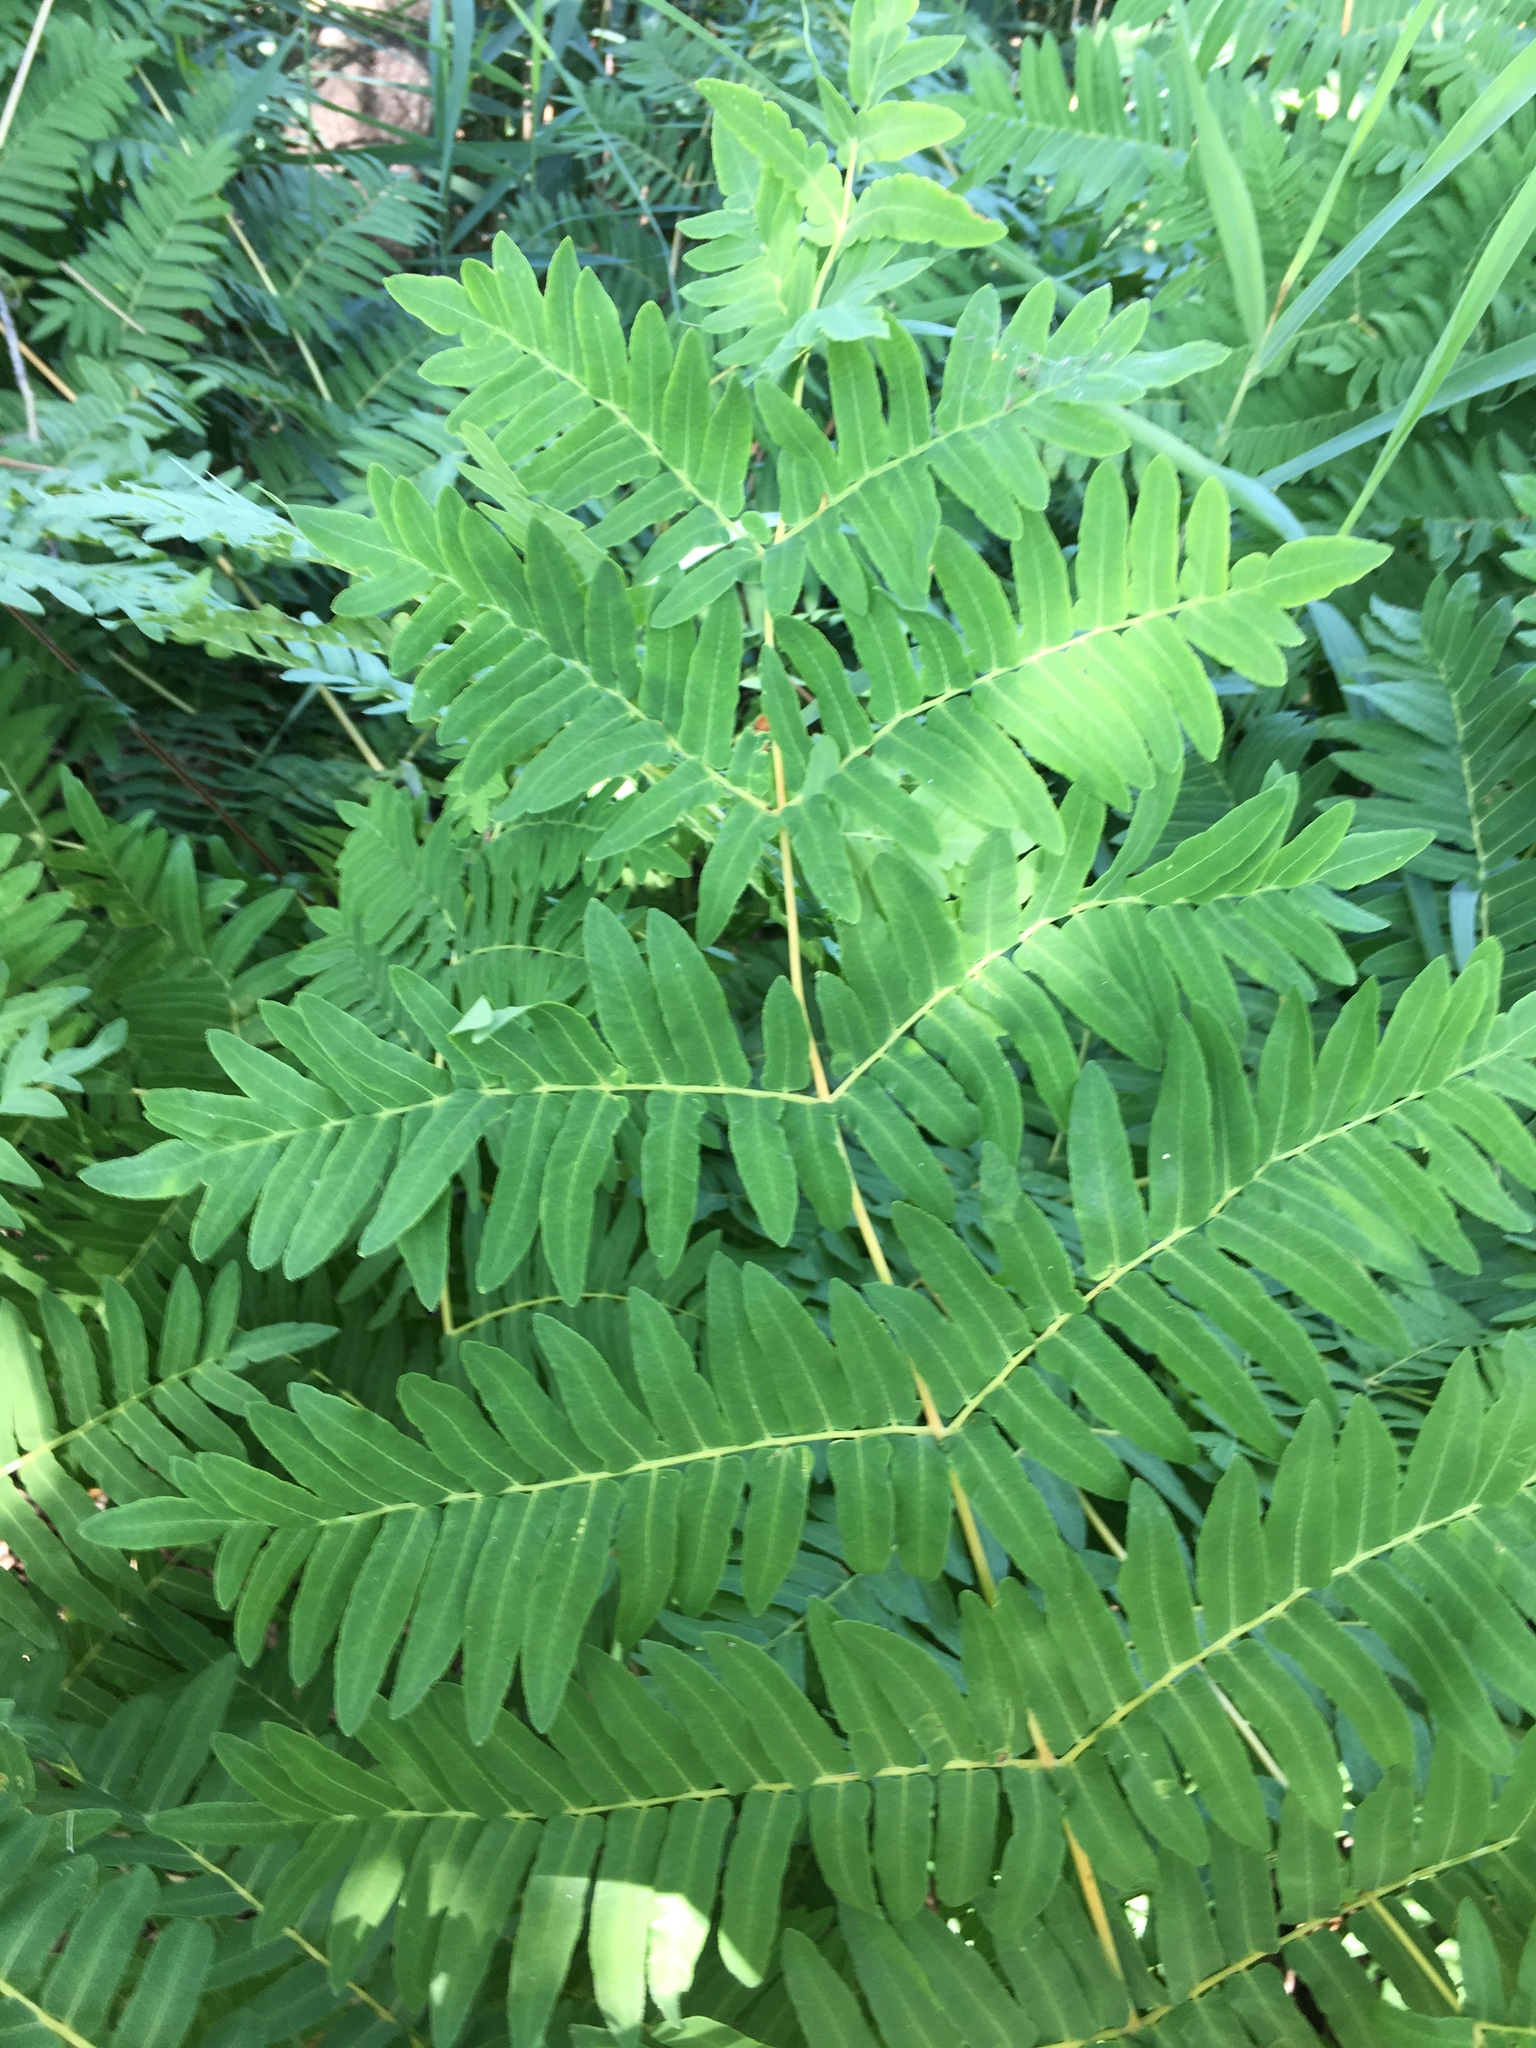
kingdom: Plantae
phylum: Tracheophyta
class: Polypodiopsida
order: Osmundales
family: Osmundaceae
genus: Osmunda
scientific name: Osmunda regalis
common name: Royal fern
